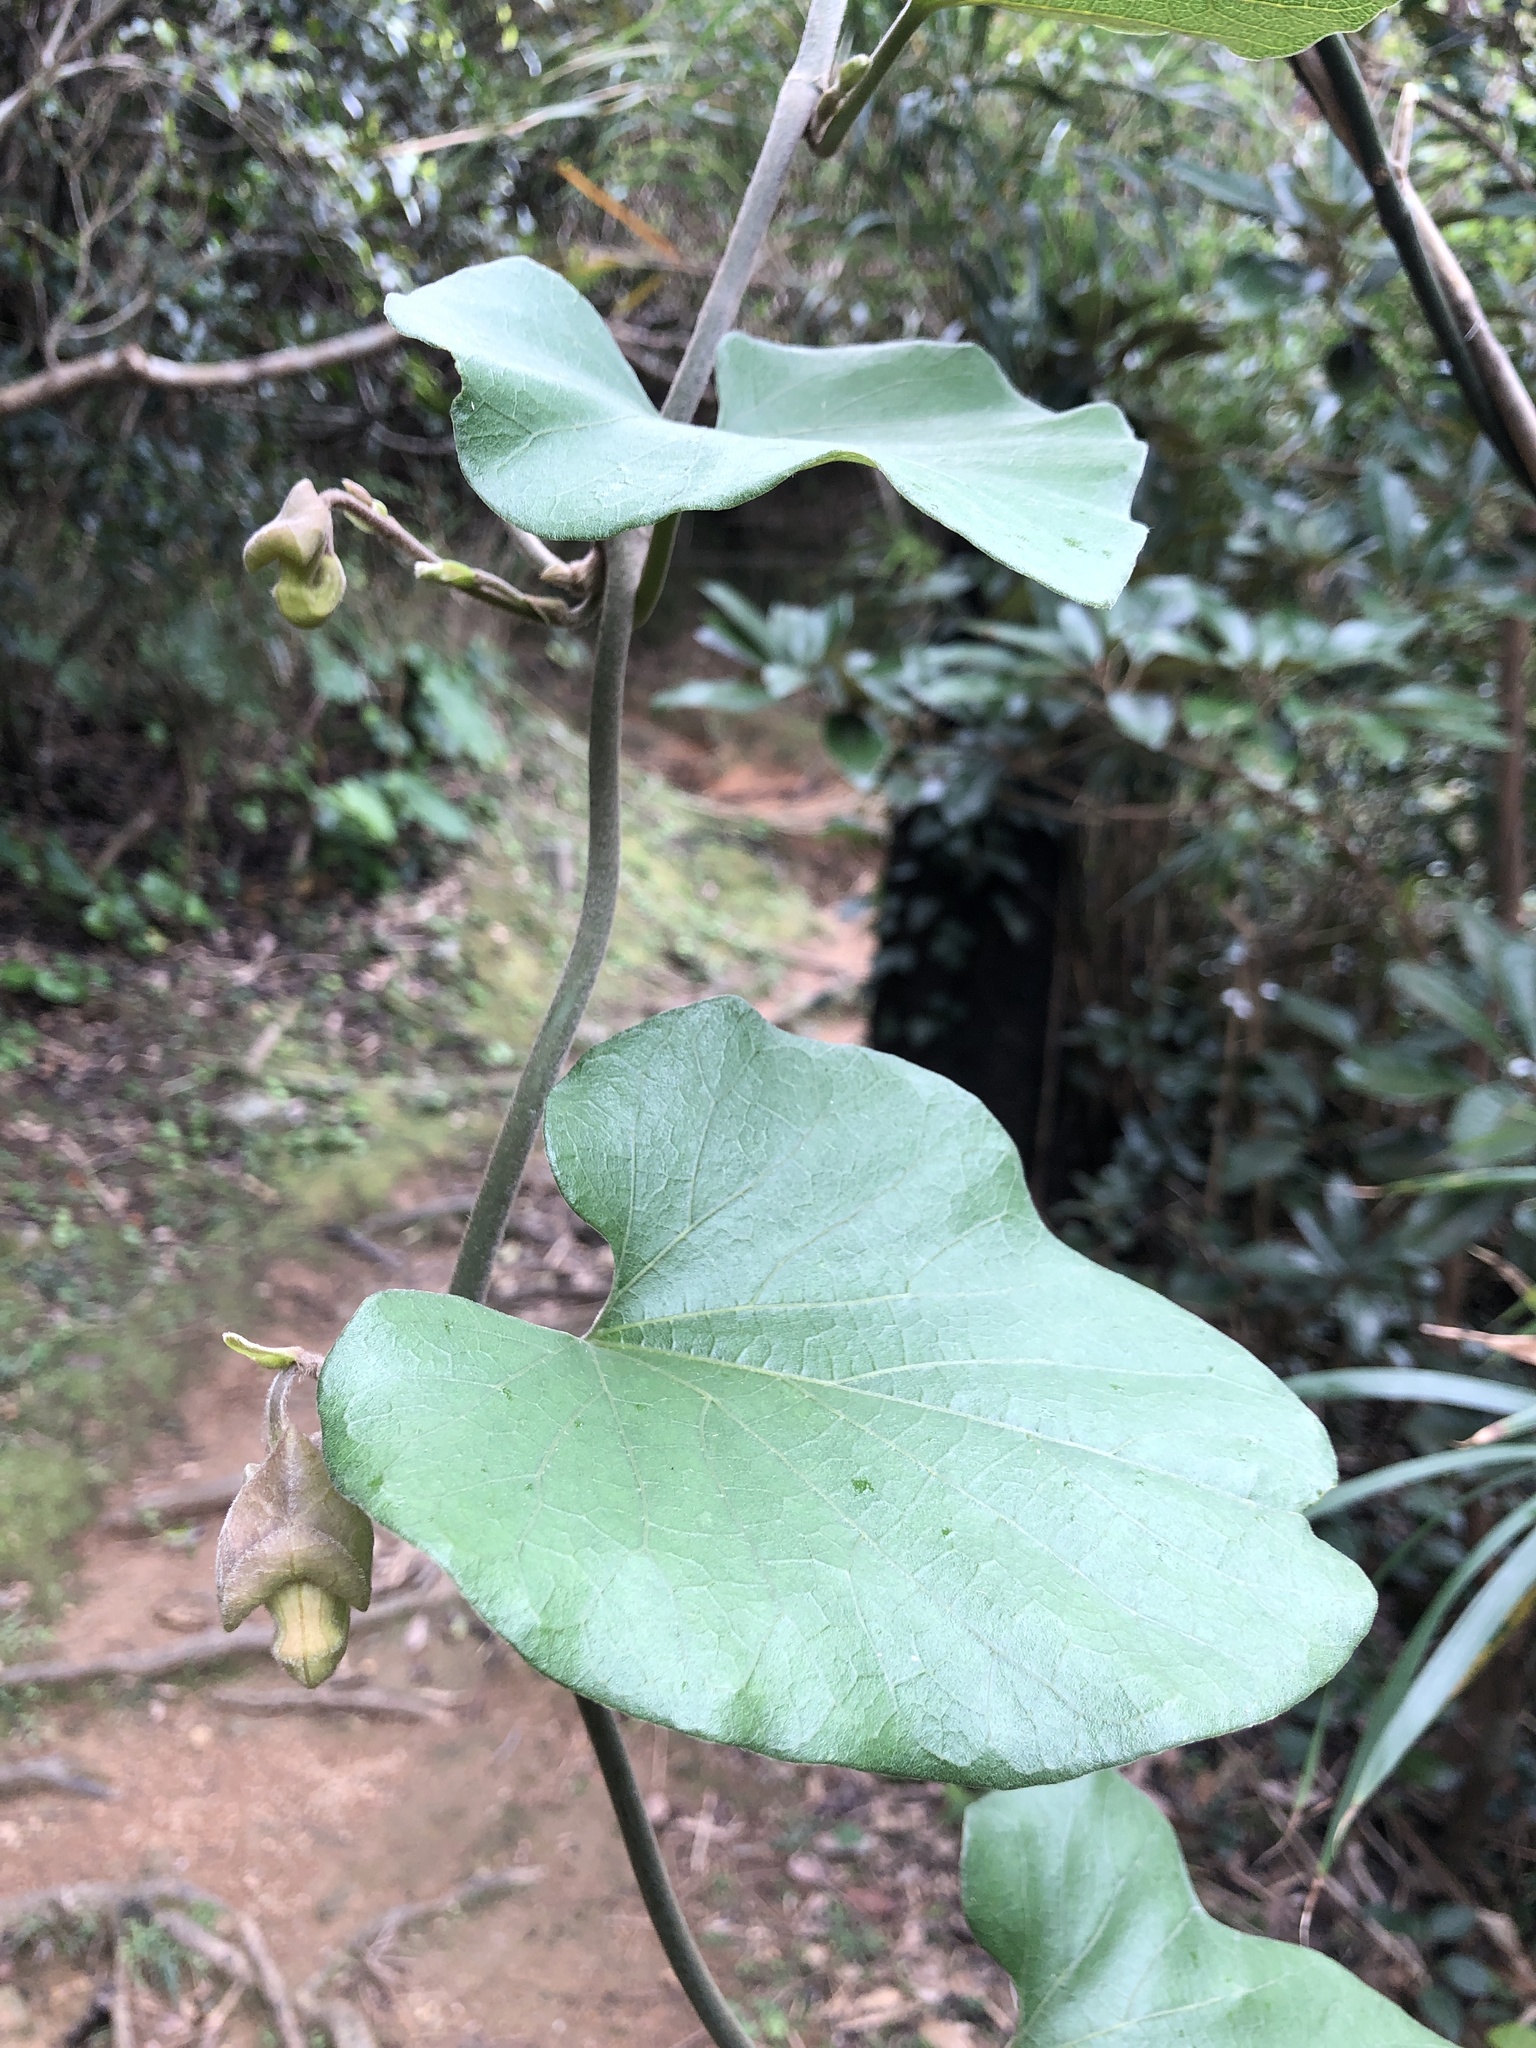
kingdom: Plantae
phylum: Tracheophyta
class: Magnoliopsida
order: Piperales
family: Aristolochiaceae
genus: Isotrema
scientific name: Isotrema liukiuense
